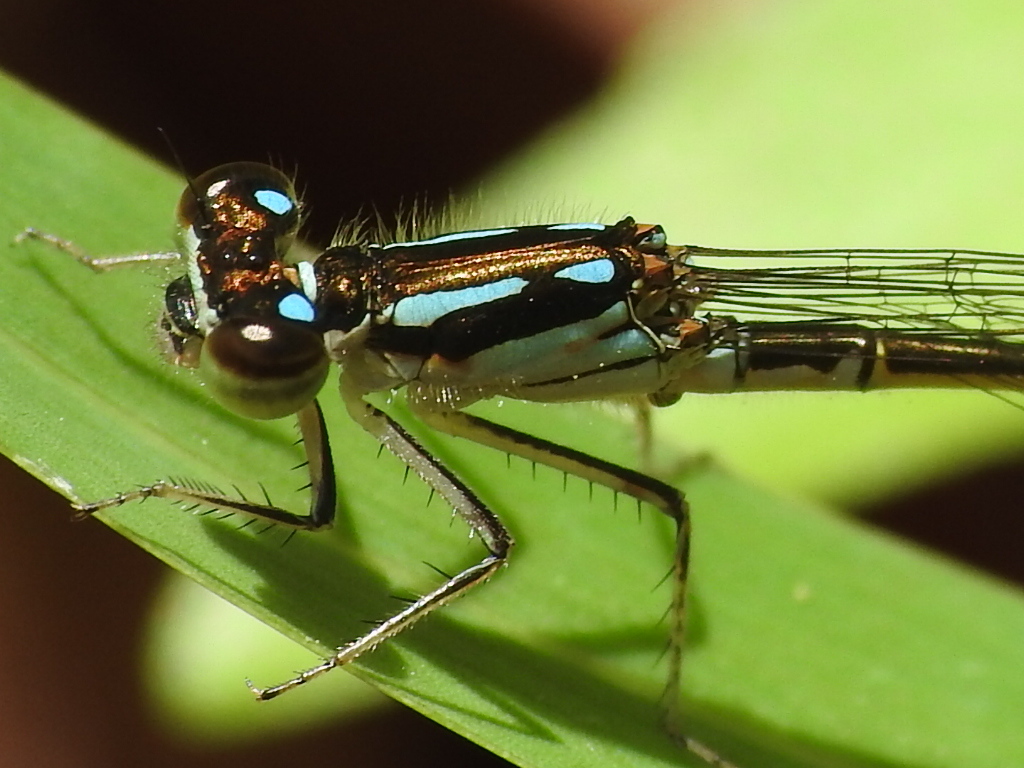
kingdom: Animalia
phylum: Arthropoda
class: Insecta
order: Odonata
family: Coenagrionidae
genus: Ischnura
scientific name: Ischnura posita
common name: Fragile forktail
